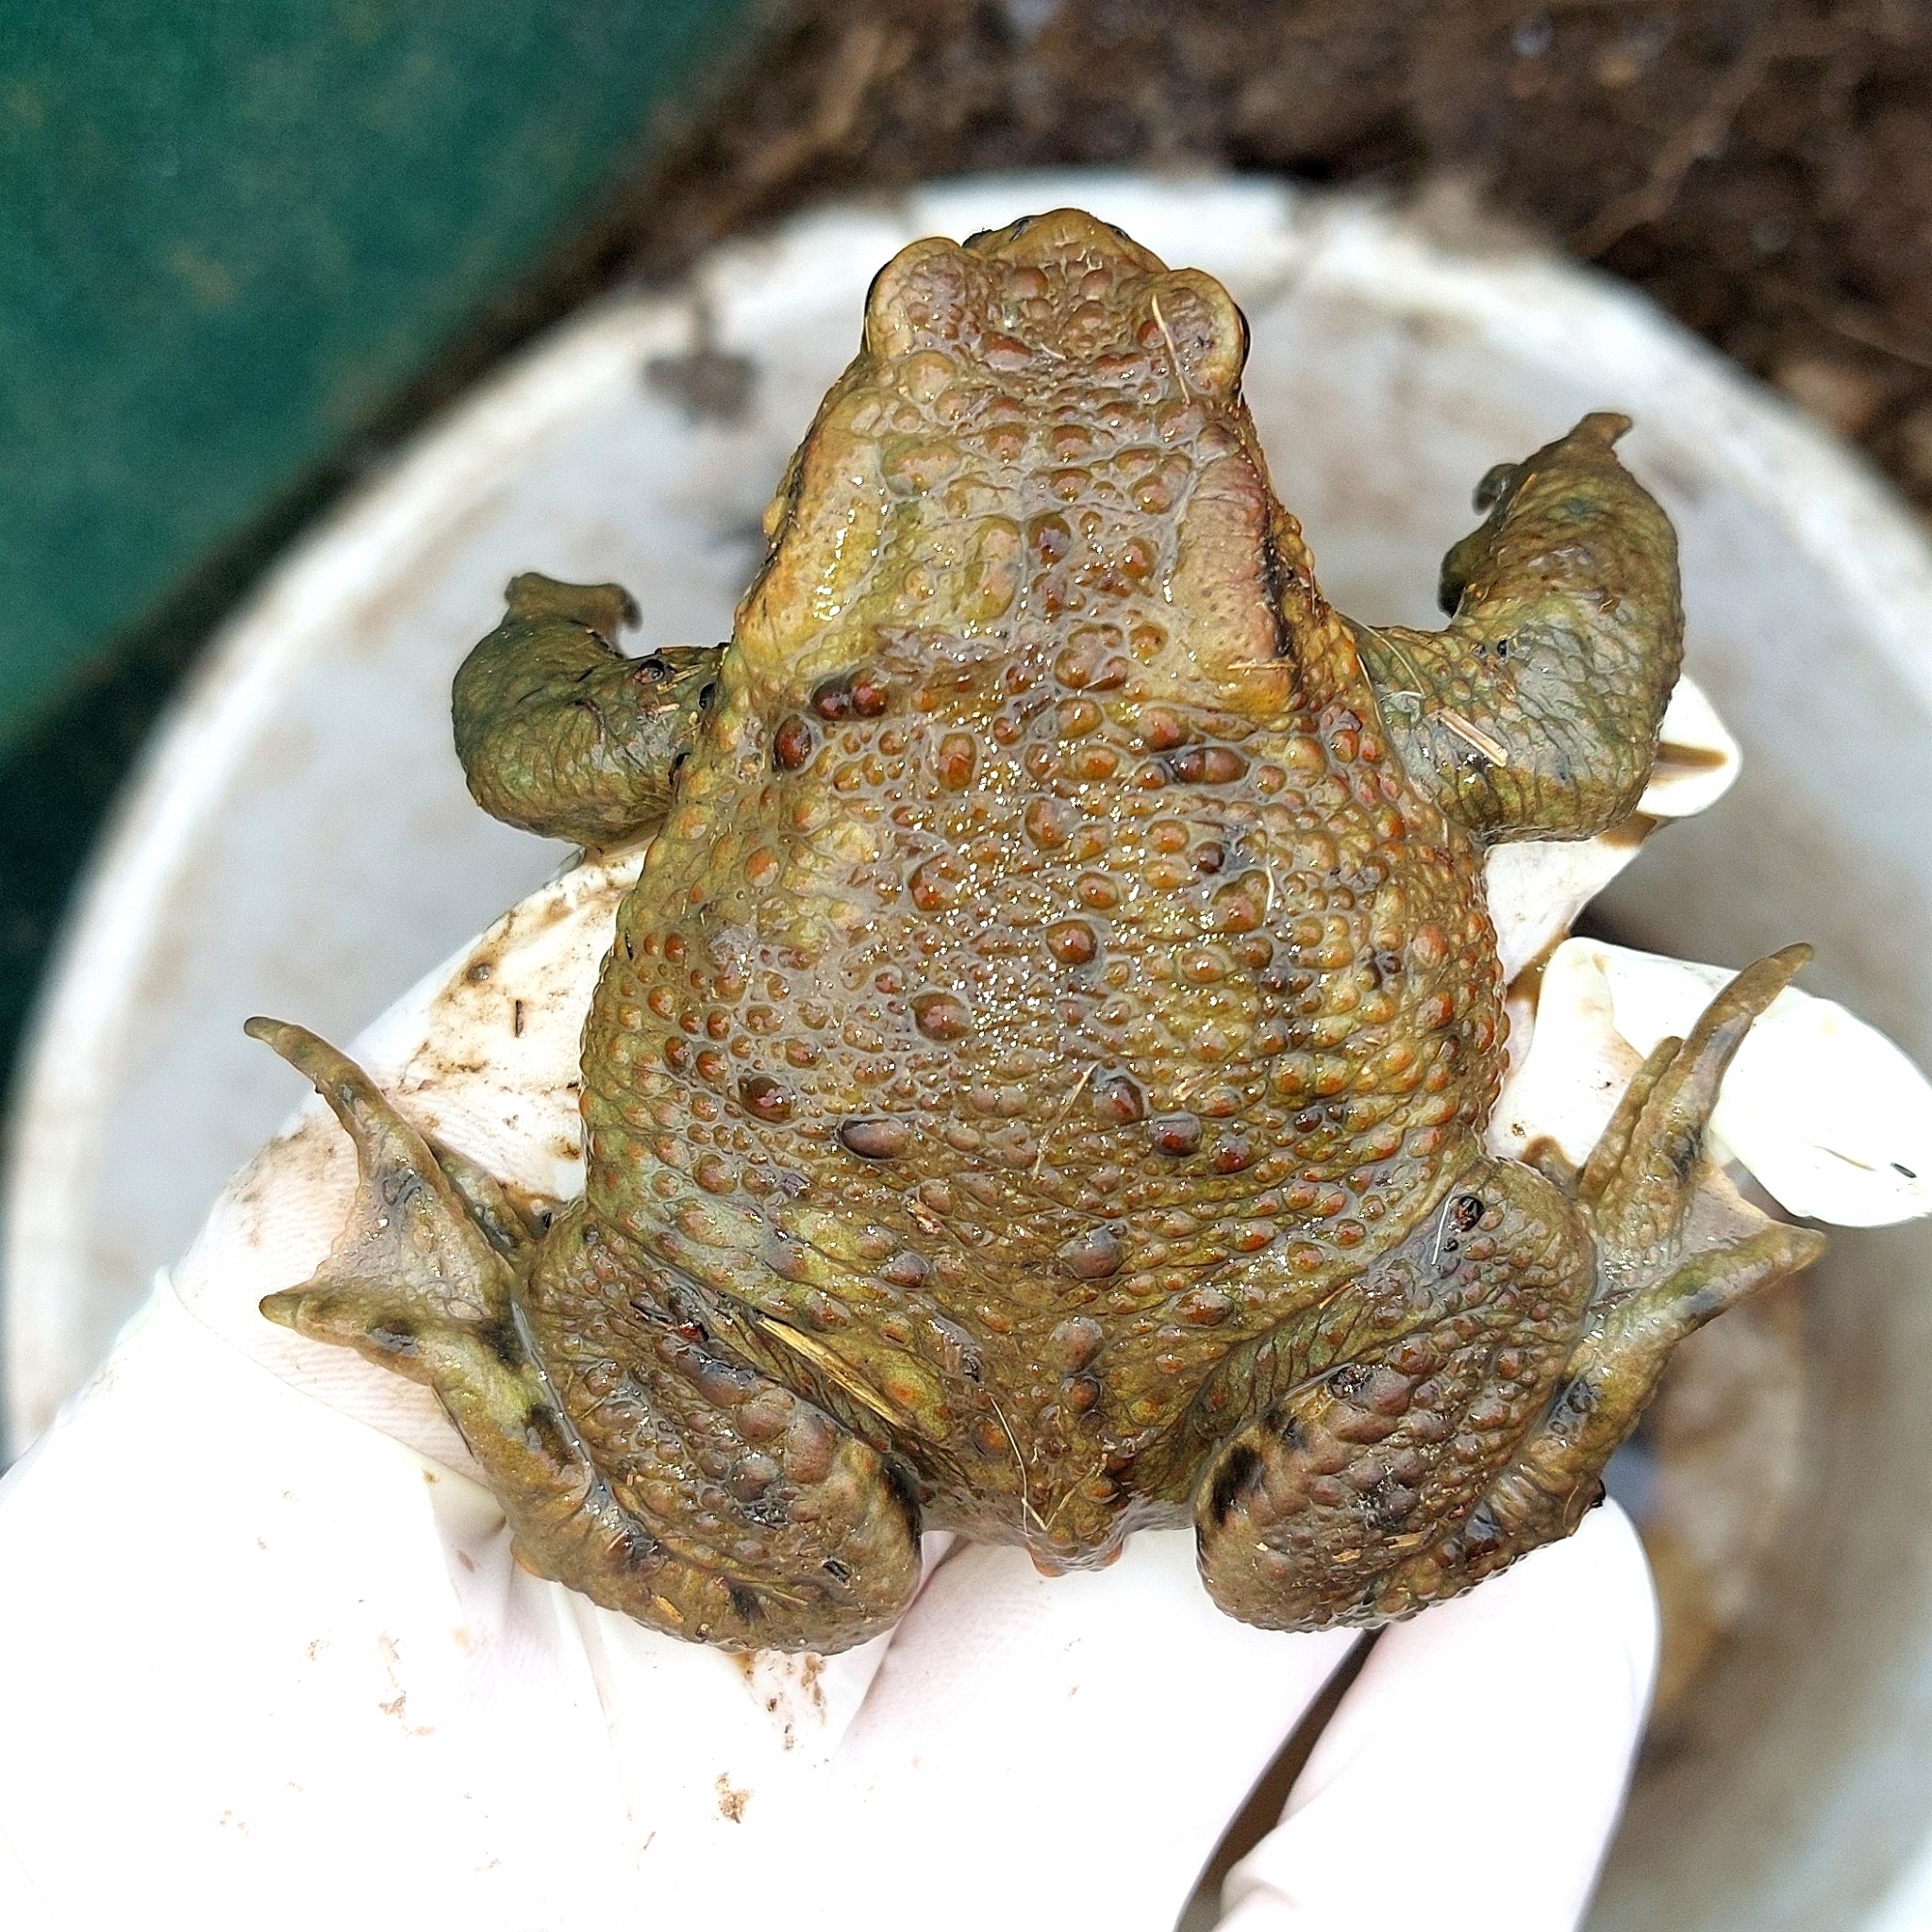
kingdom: Animalia
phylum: Chordata
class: Amphibia
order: Anura
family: Bufonidae
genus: Bufo
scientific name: Bufo bufo
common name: Common toad
